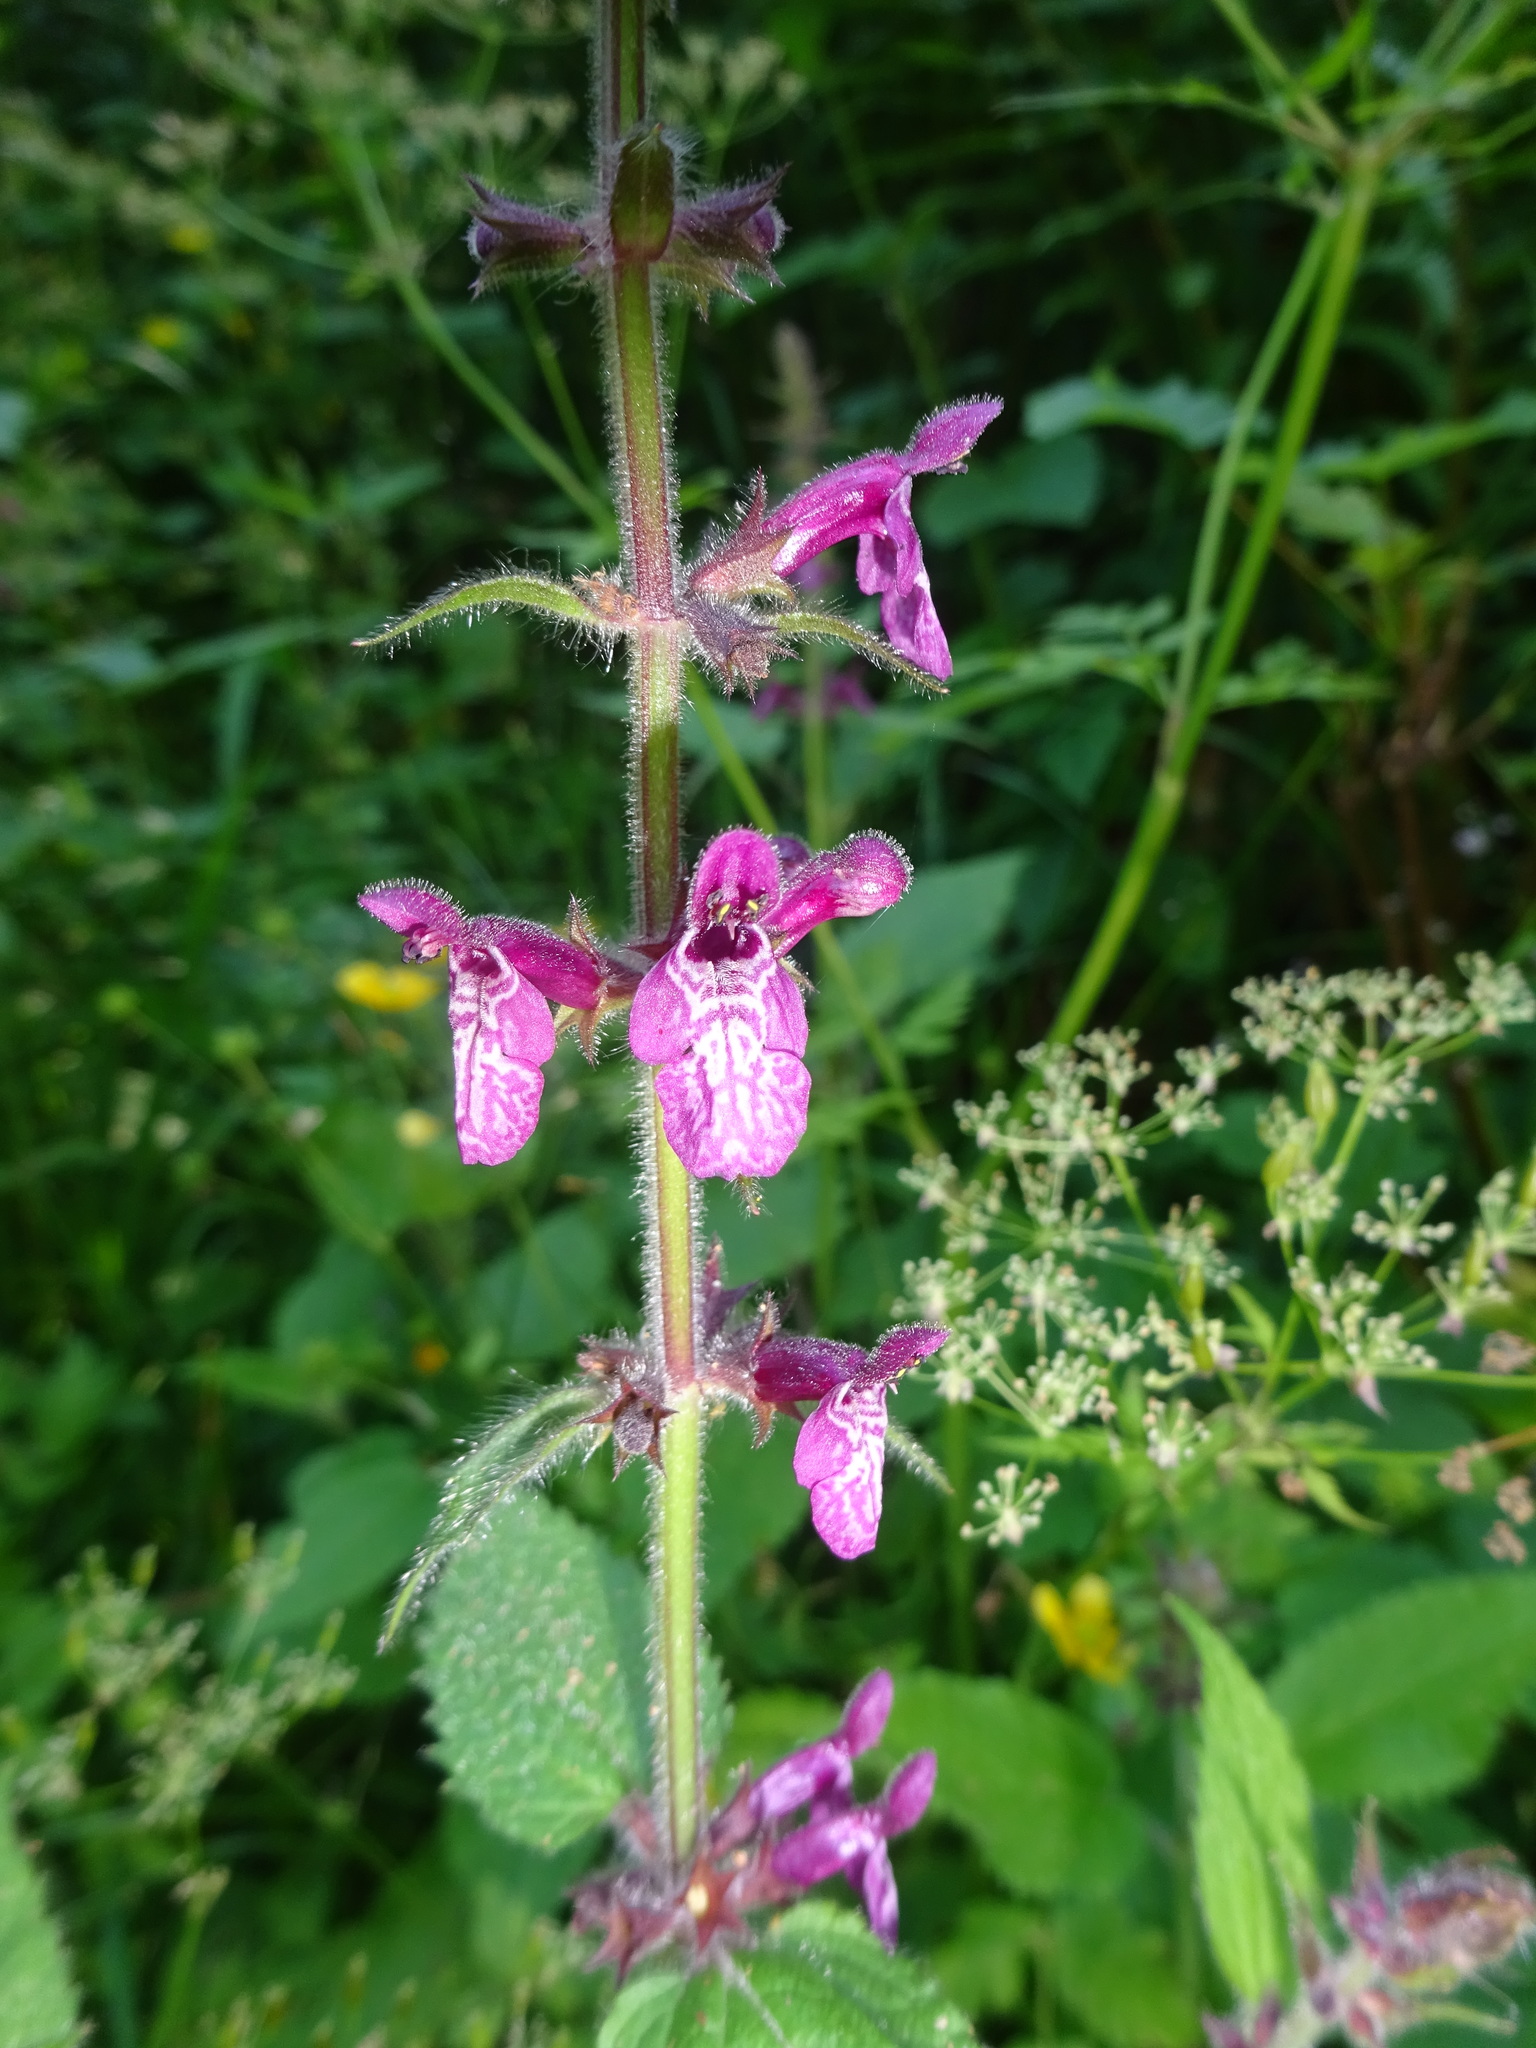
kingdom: Plantae
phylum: Tracheophyta
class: Magnoliopsida
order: Lamiales
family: Lamiaceae
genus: Stachys
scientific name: Stachys sylvatica
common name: Hedge woundwort
